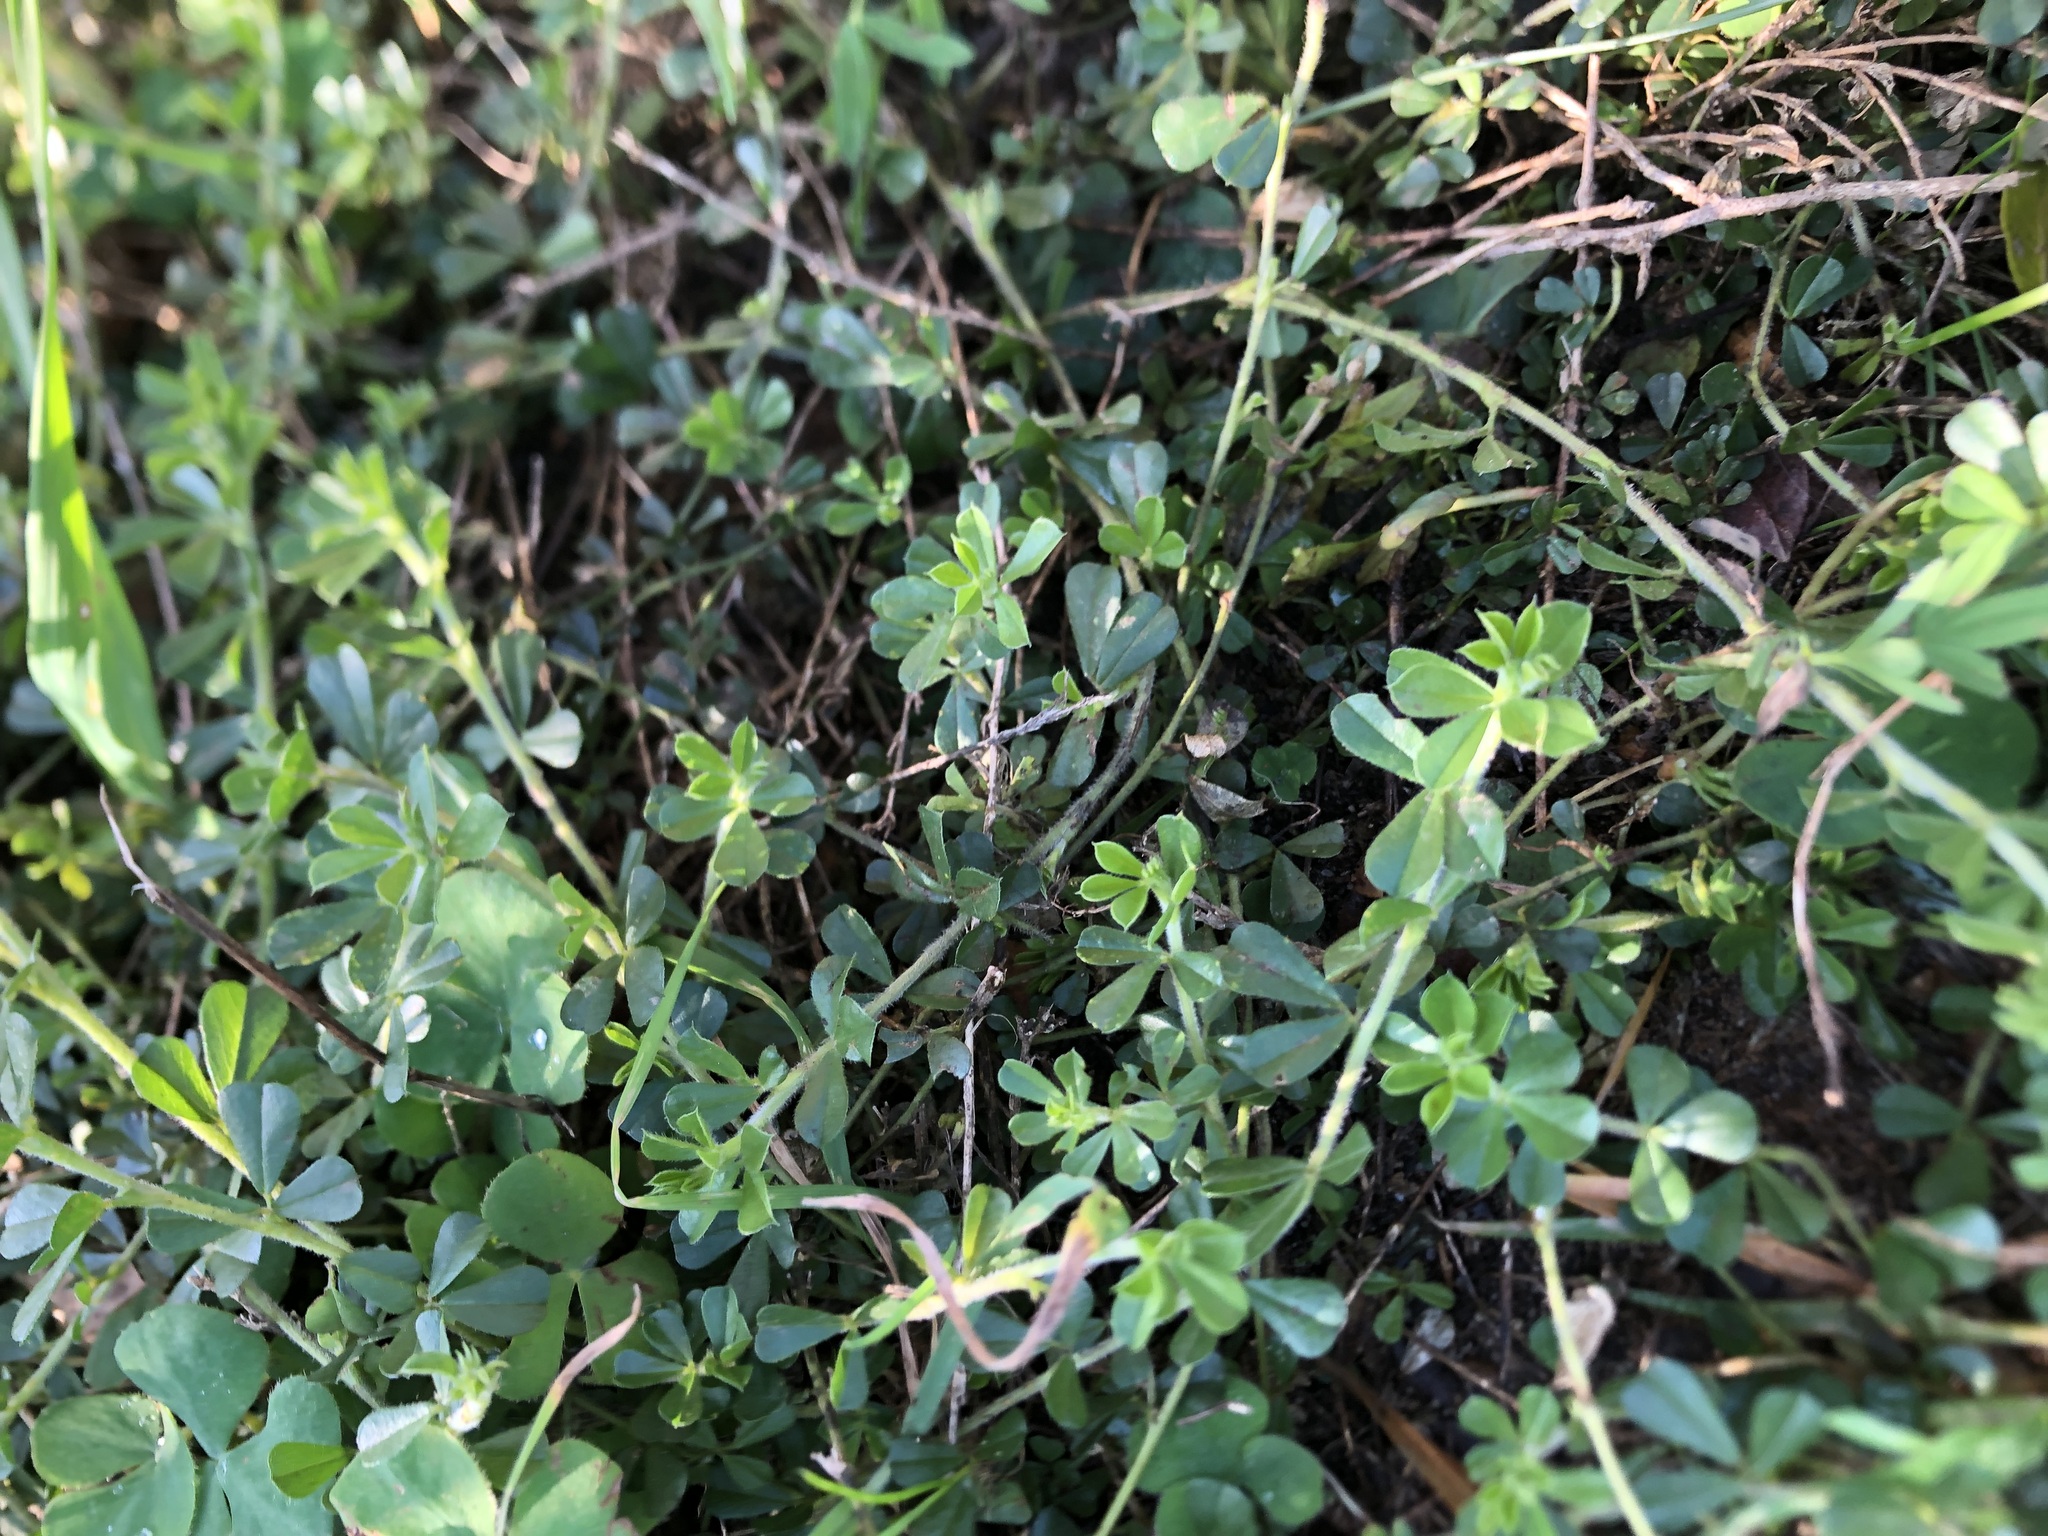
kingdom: Plantae
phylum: Tracheophyta
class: Magnoliopsida
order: Fabales
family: Fabaceae
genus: Psoralea
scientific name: Psoralea
